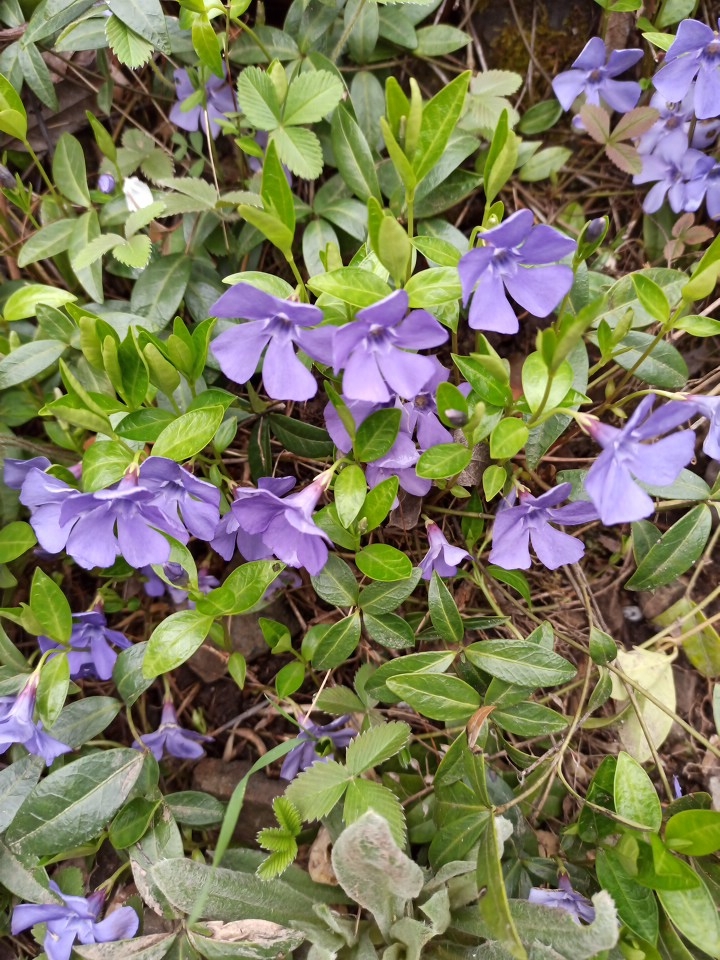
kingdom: Plantae
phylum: Tracheophyta
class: Magnoliopsida
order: Gentianales
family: Apocynaceae
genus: Vinca
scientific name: Vinca minor
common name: Lesser periwinkle
